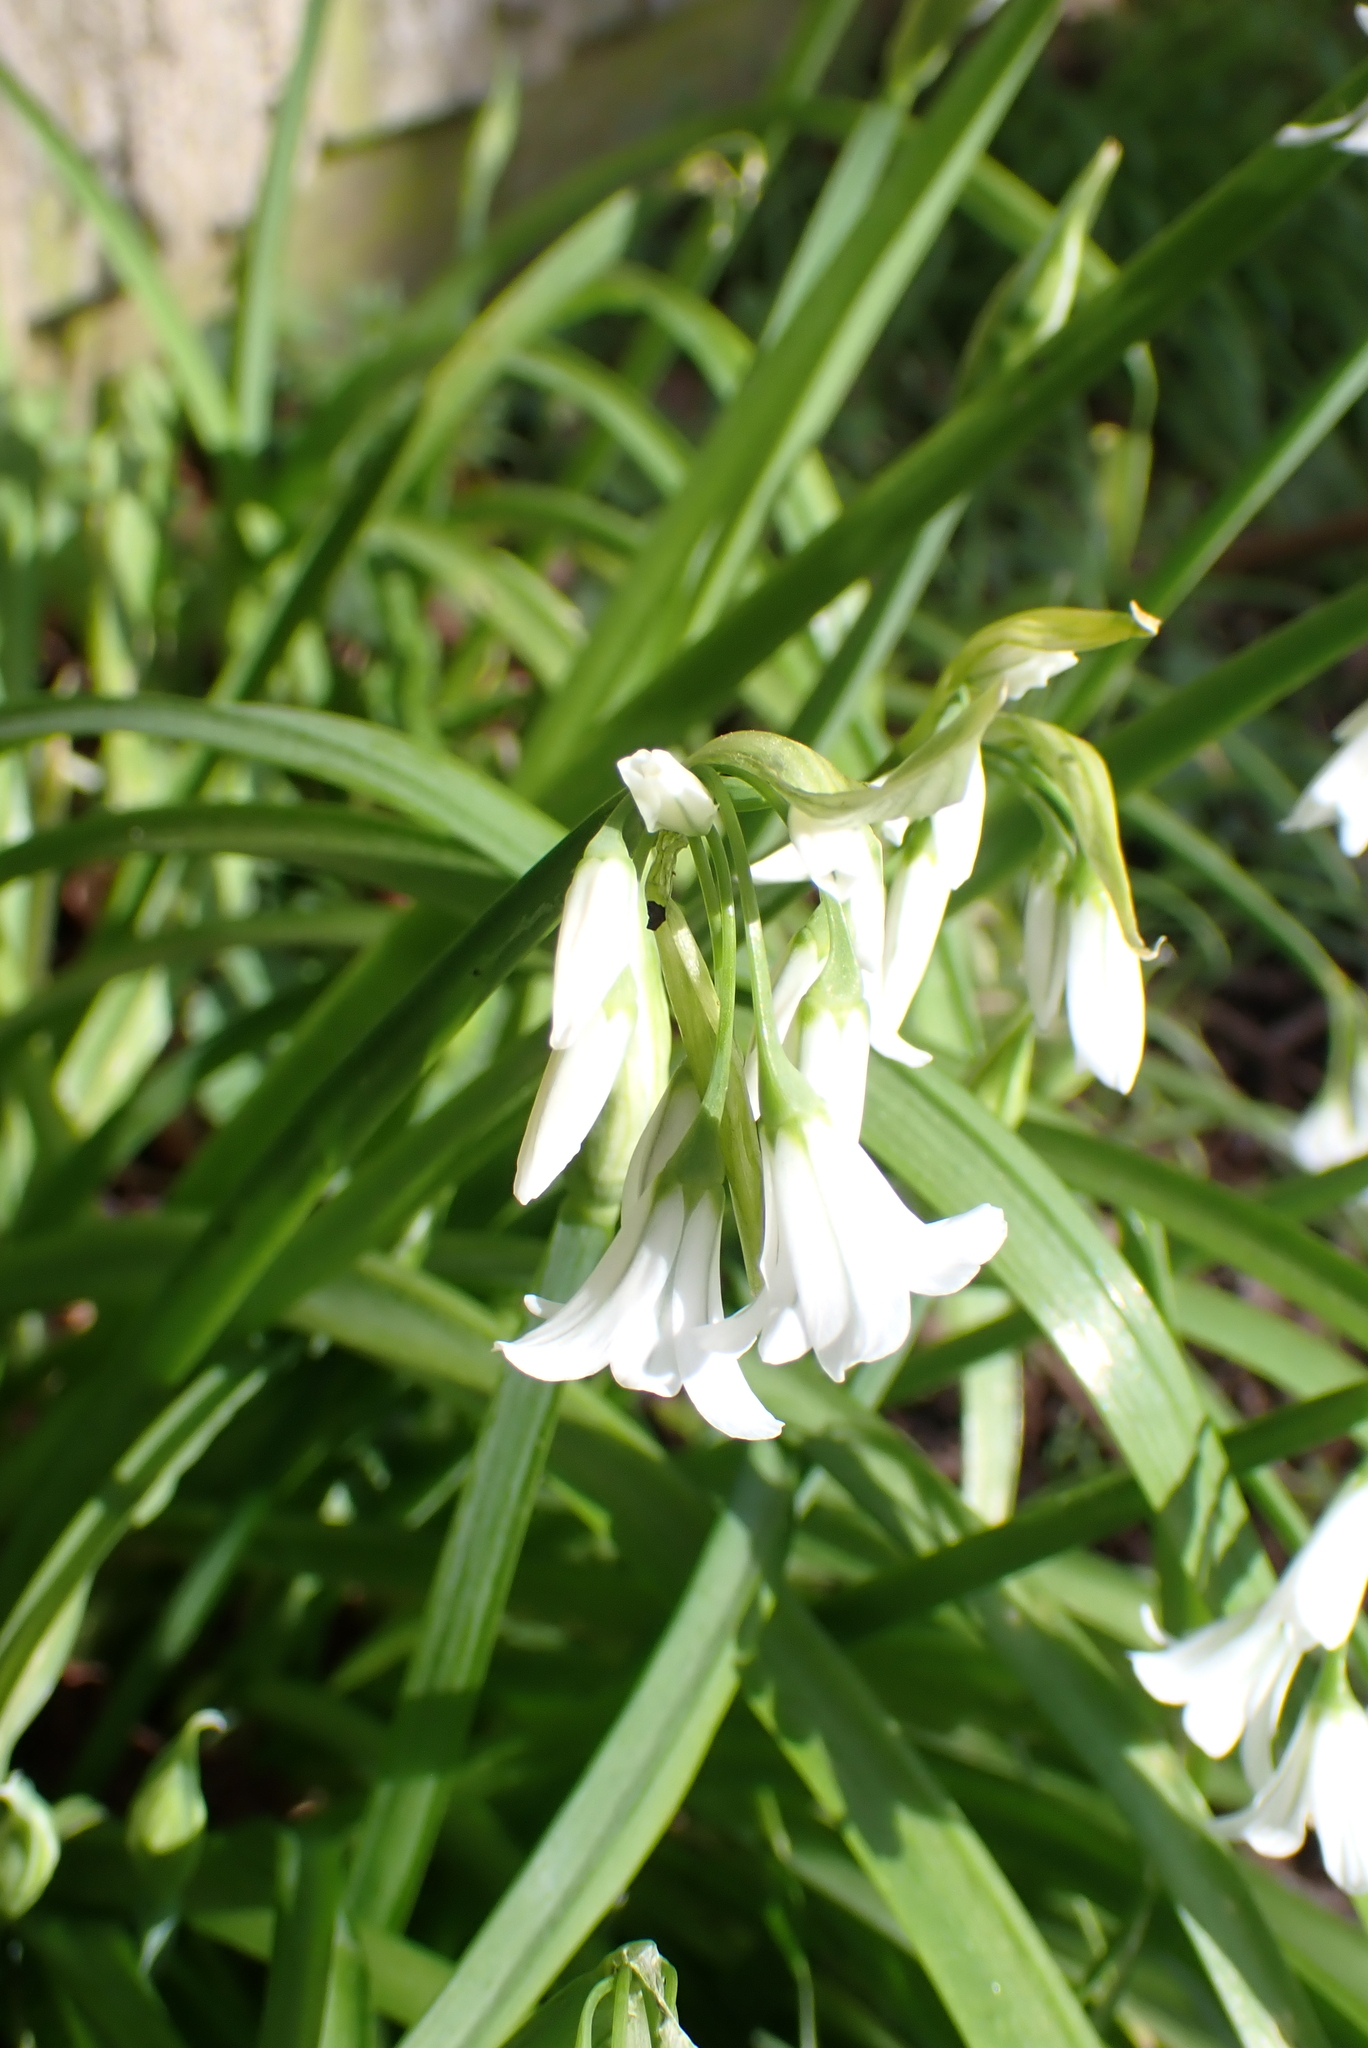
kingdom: Plantae
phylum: Tracheophyta
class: Liliopsida
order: Asparagales
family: Amaryllidaceae
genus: Allium
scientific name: Allium triquetrum
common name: Three-cornered garlic
